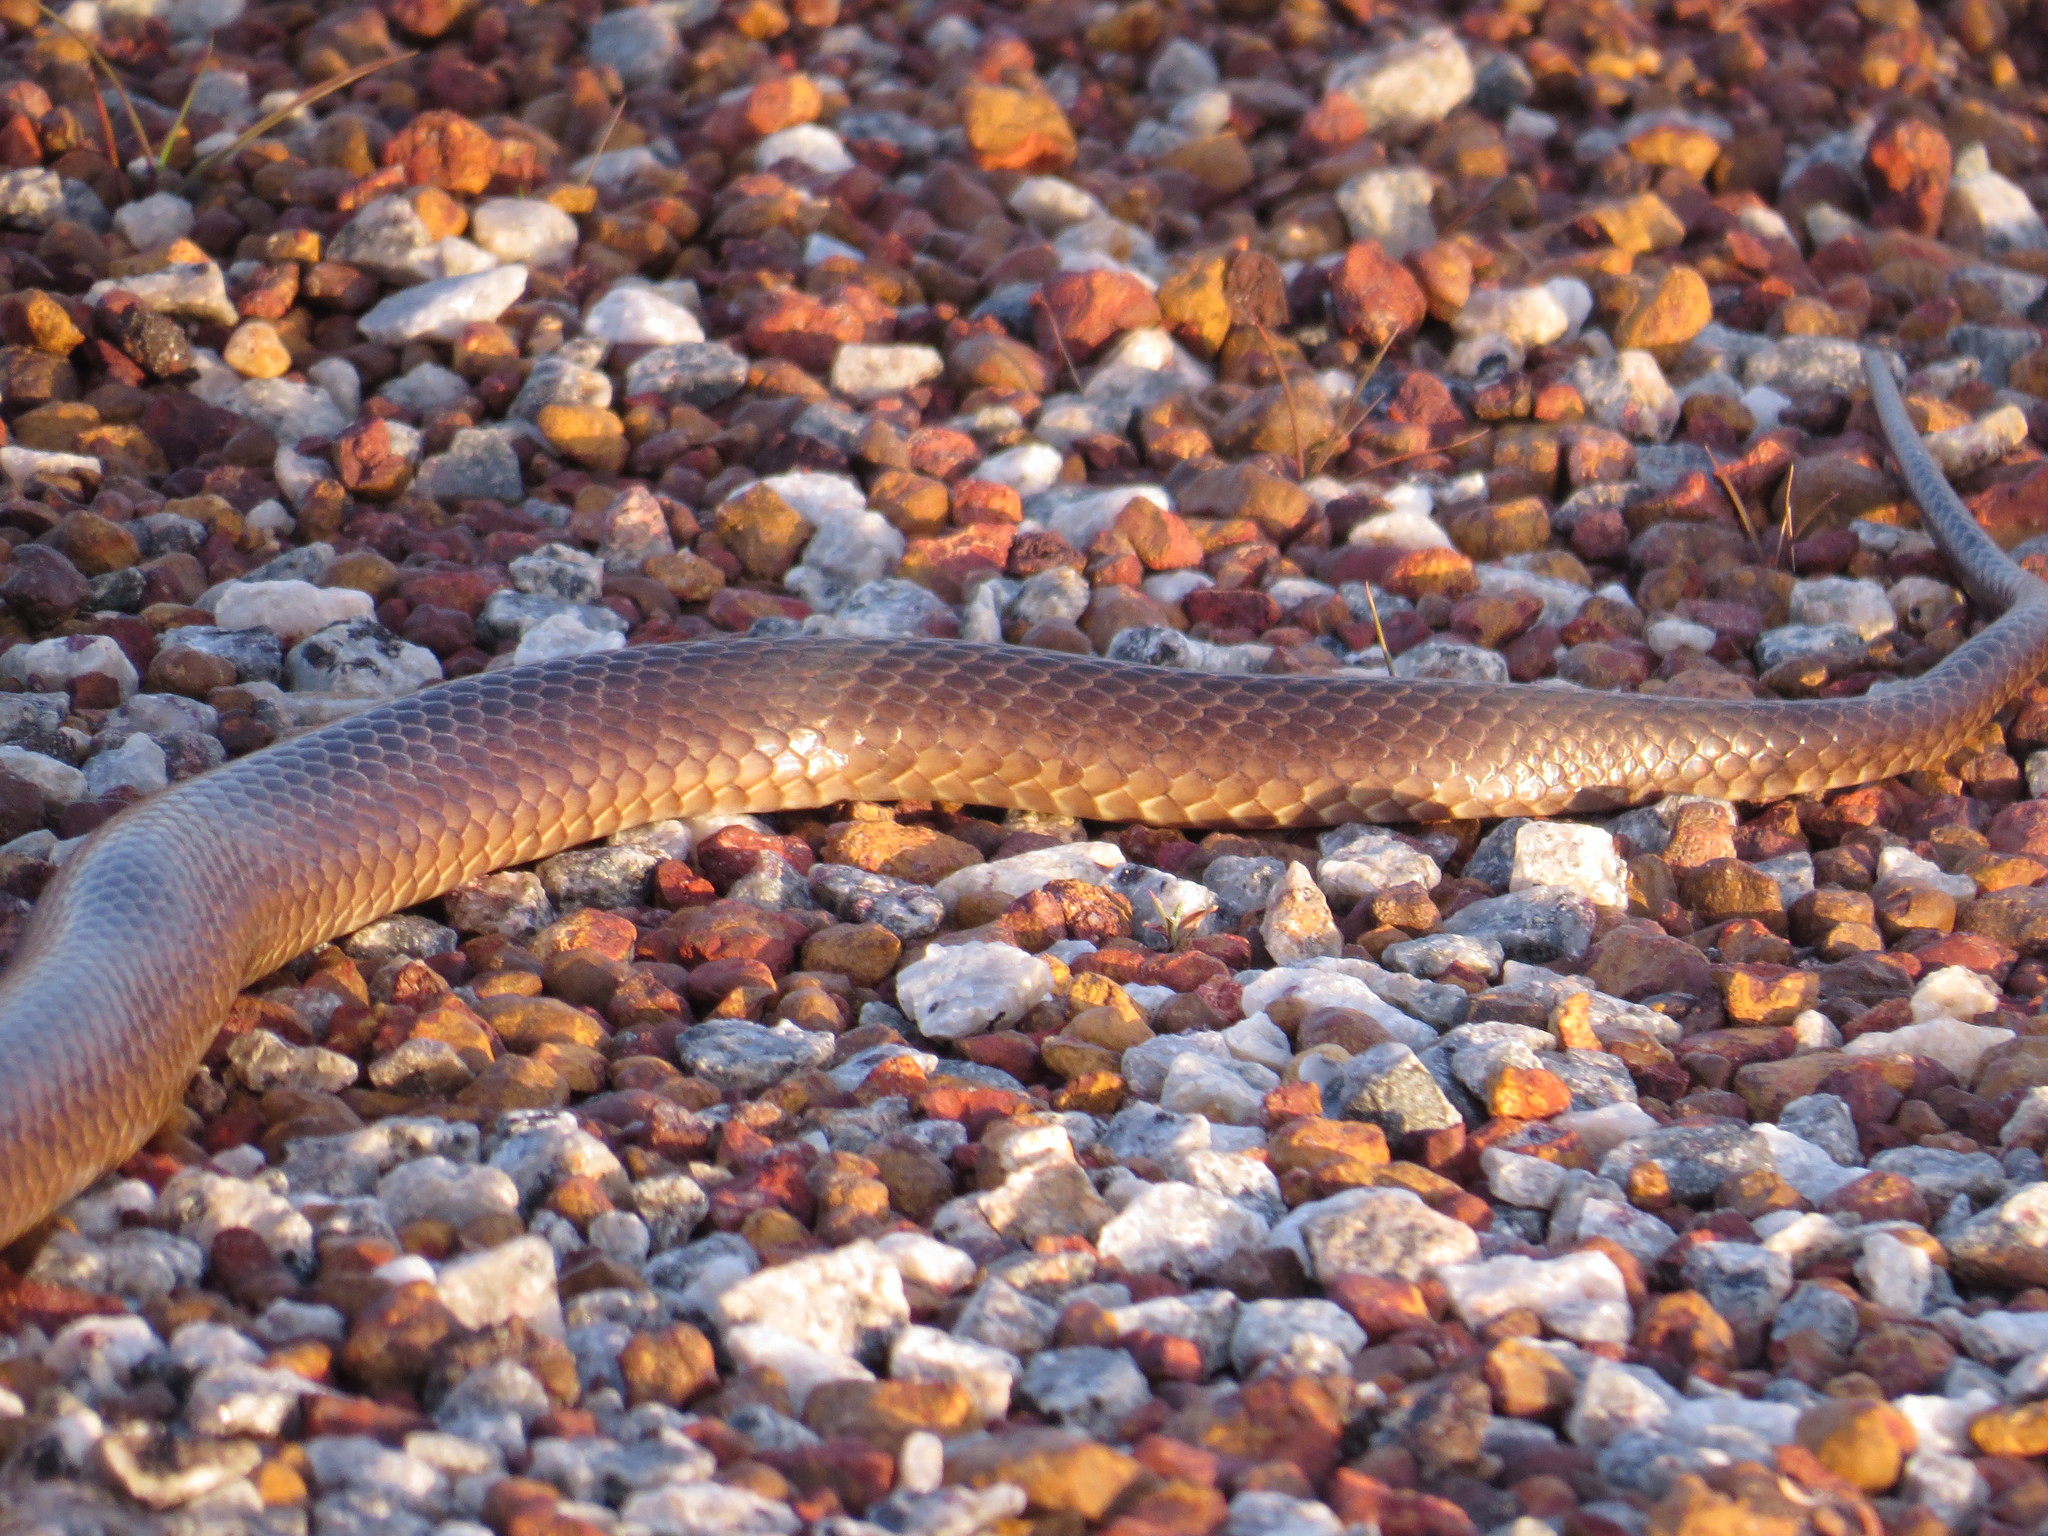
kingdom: Animalia
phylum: Chordata
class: Squamata
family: Elapidae
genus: Pseudonaja
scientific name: Pseudonaja nuchalis
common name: Gwardar
